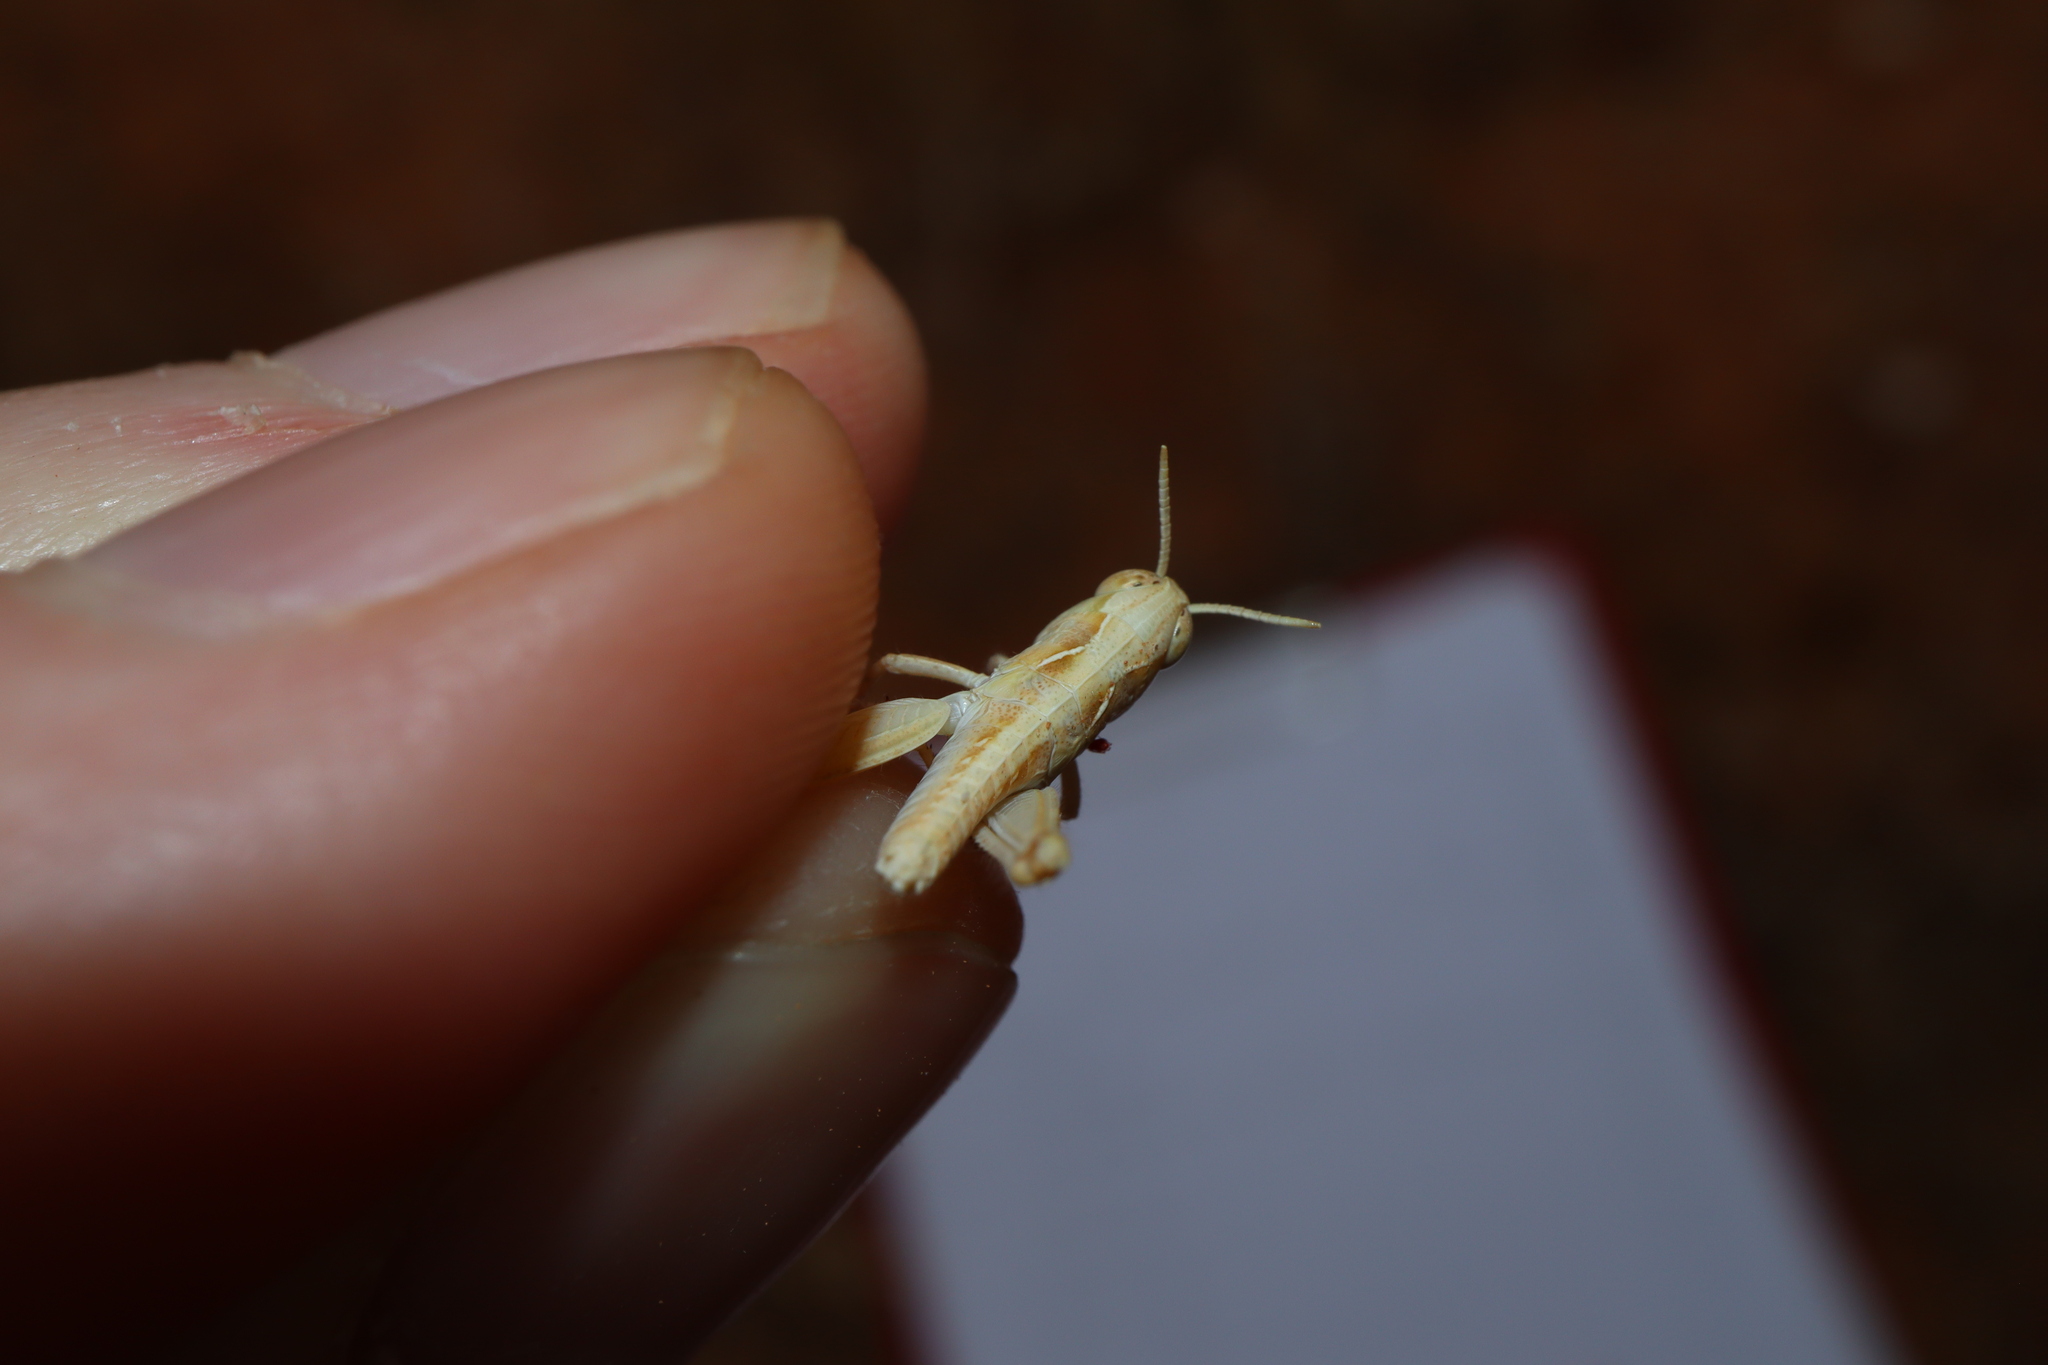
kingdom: Animalia
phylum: Arthropoda
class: Insecta
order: Orthoptera
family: Acrididae
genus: Chortoicetes
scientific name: Chortoicetes terminifera
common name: Australian plague locust
